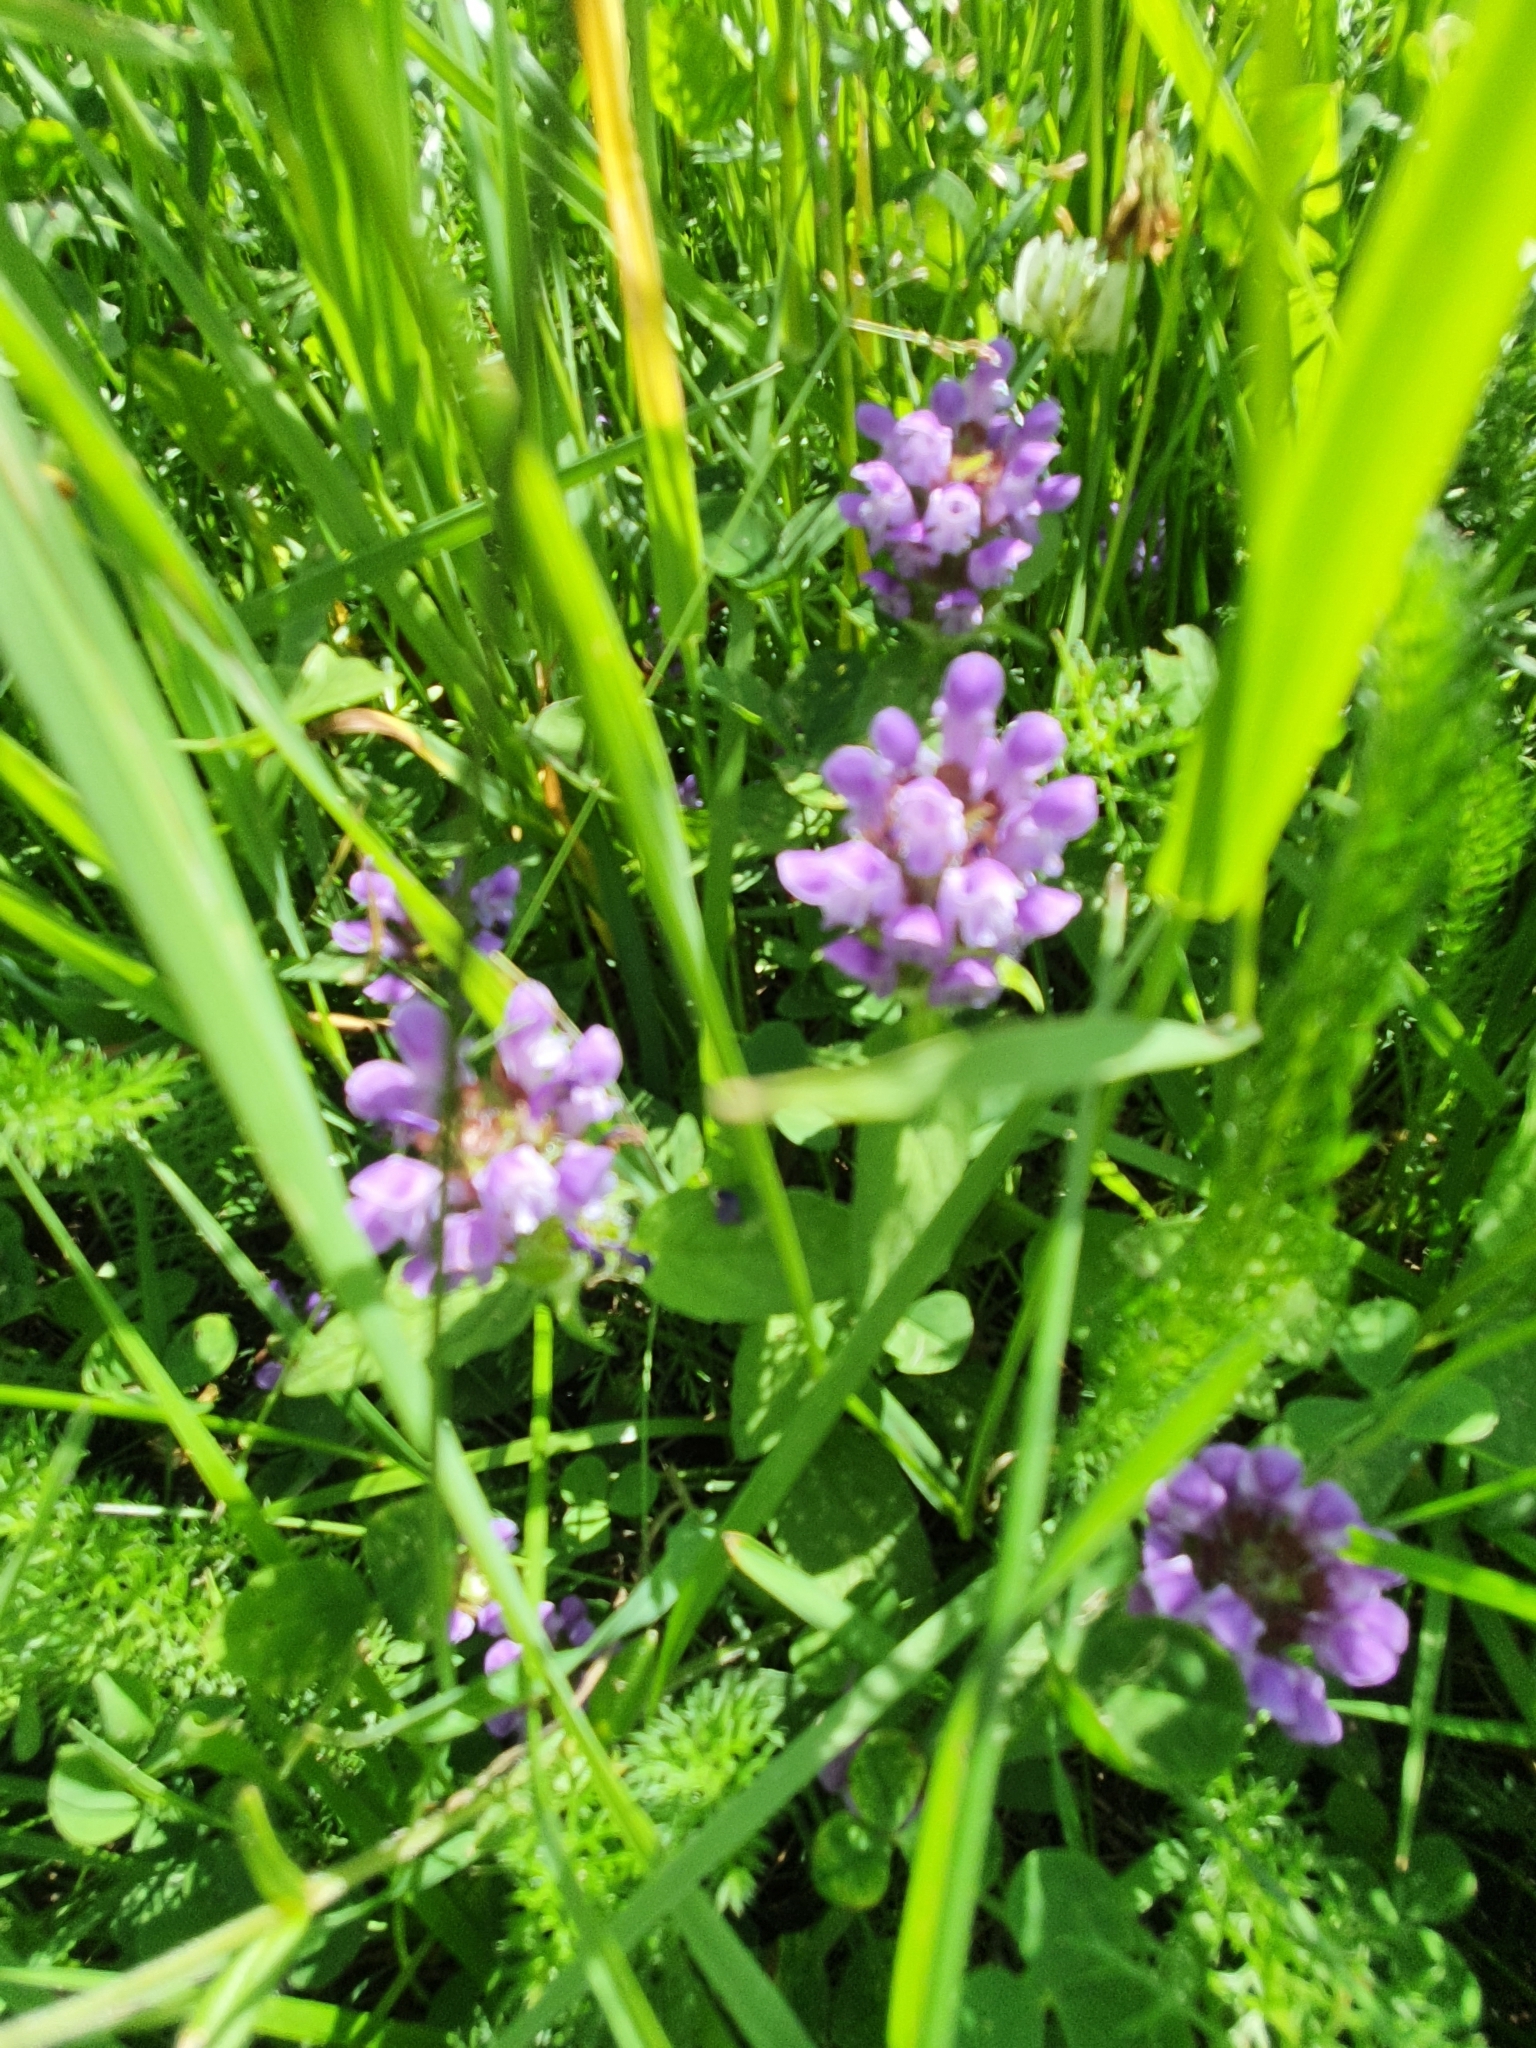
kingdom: Plantae
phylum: Tracheophyta
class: Magnoliopsida
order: Lamiales
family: Lamiaceae
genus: Prunella
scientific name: Prunella vulgaris
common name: Heal-all
